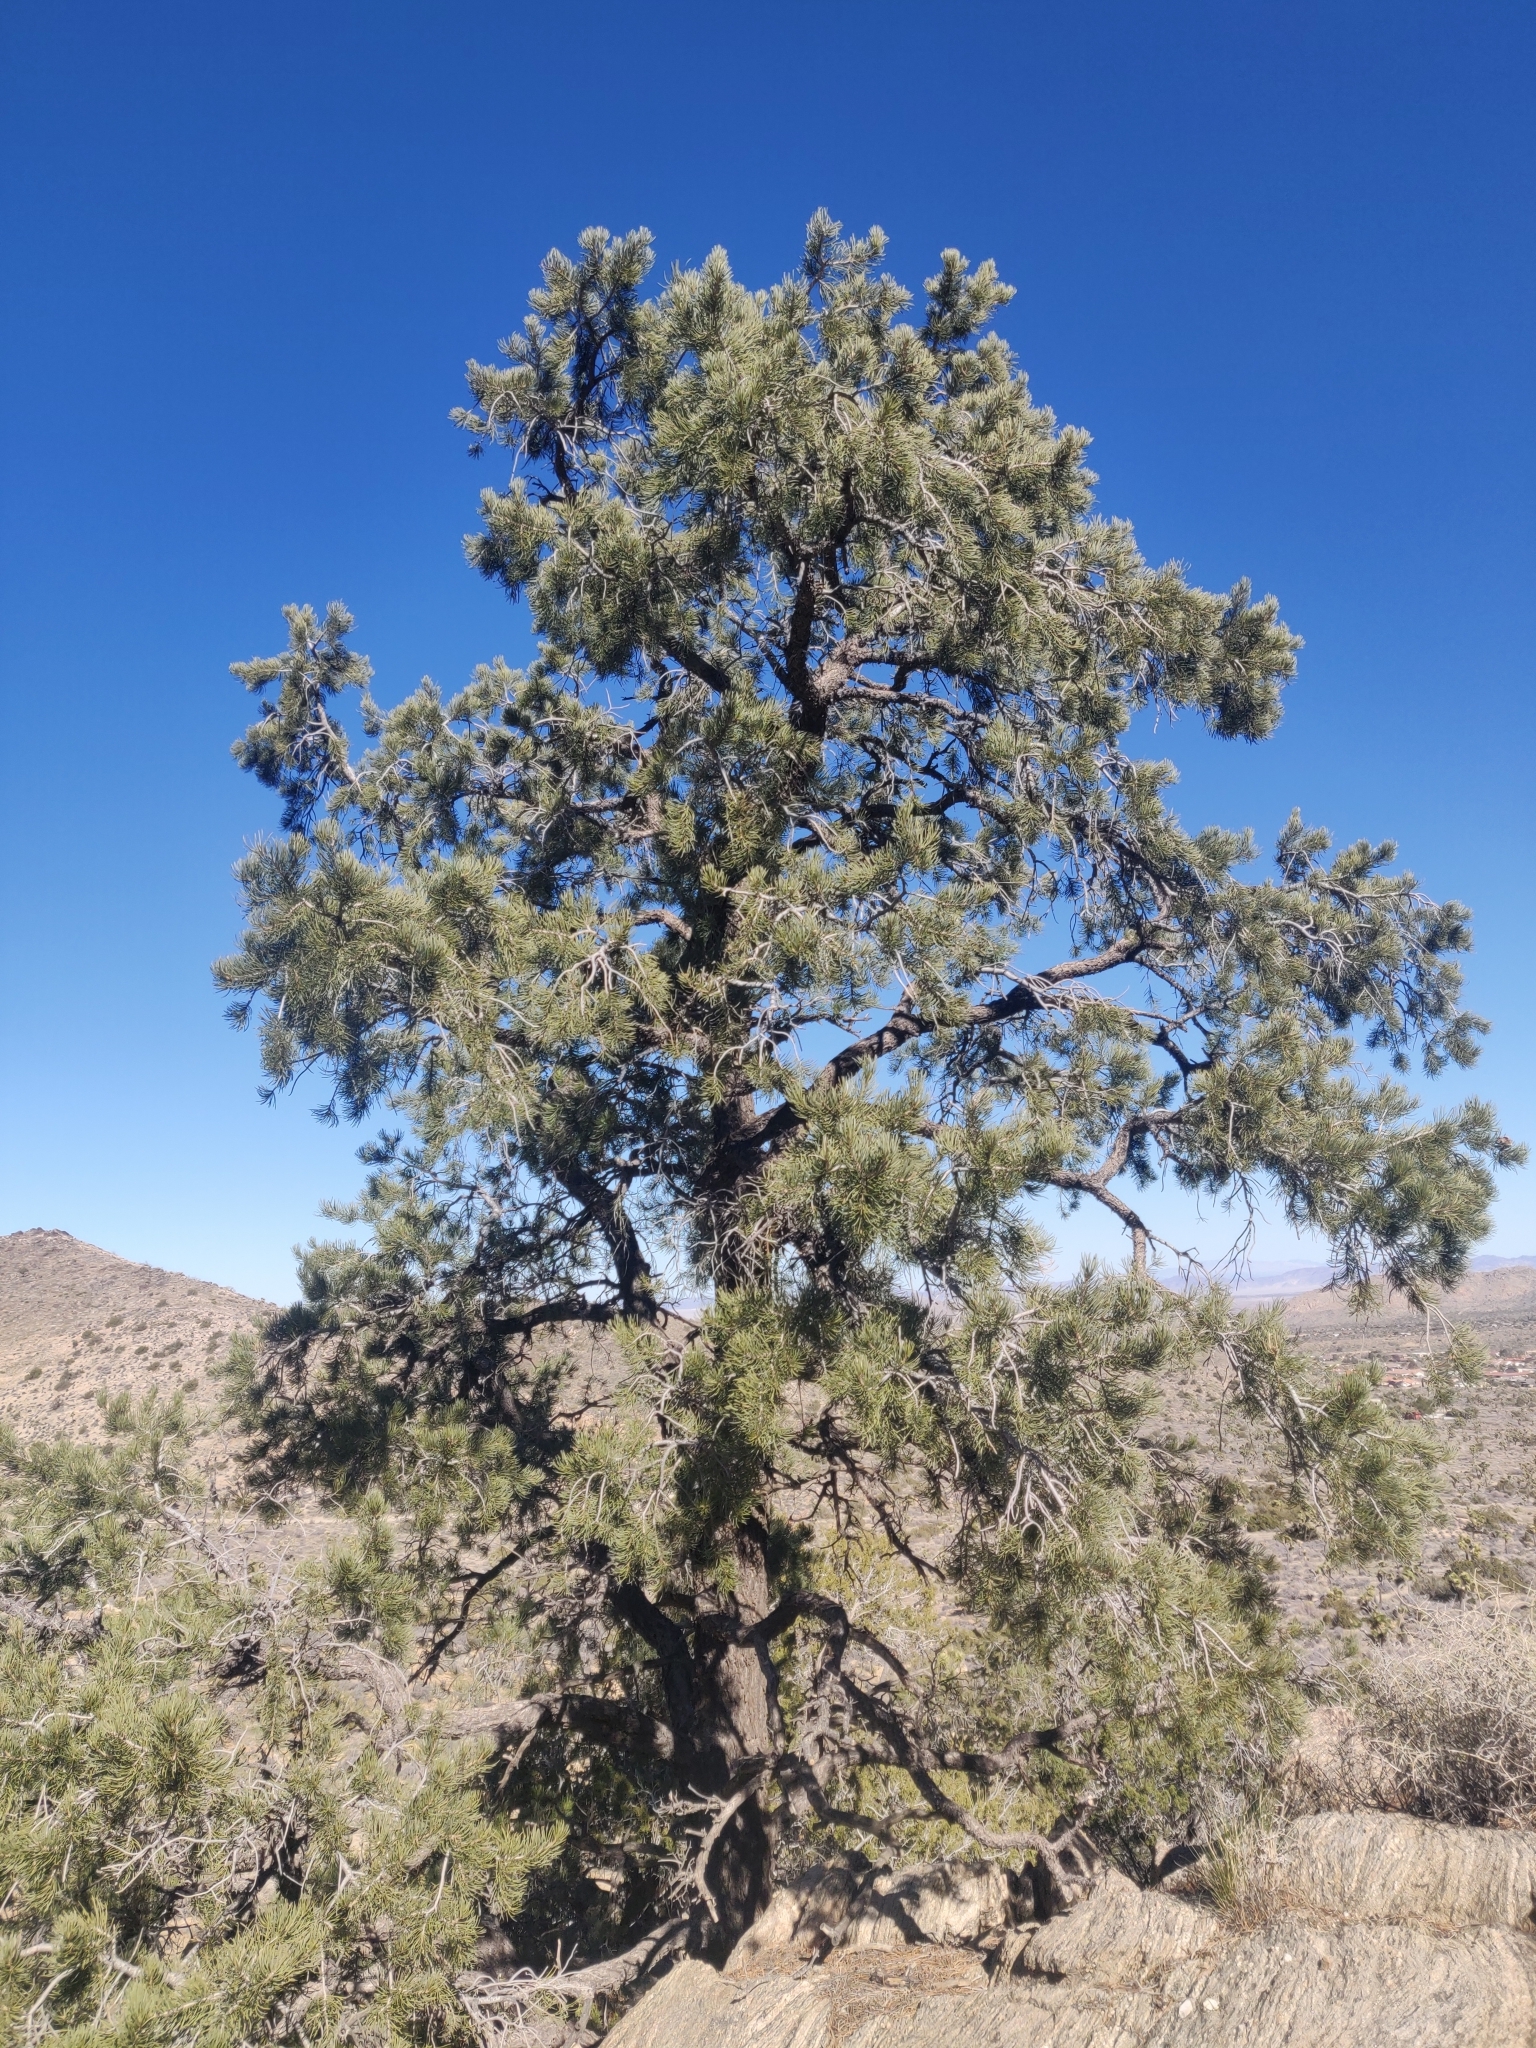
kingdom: Plantae
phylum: Tracheophyta
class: Pinopsida
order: Pinales
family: Pinaceae
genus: Pinus
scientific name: Pinus monophylla
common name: One-leaved nut pine
